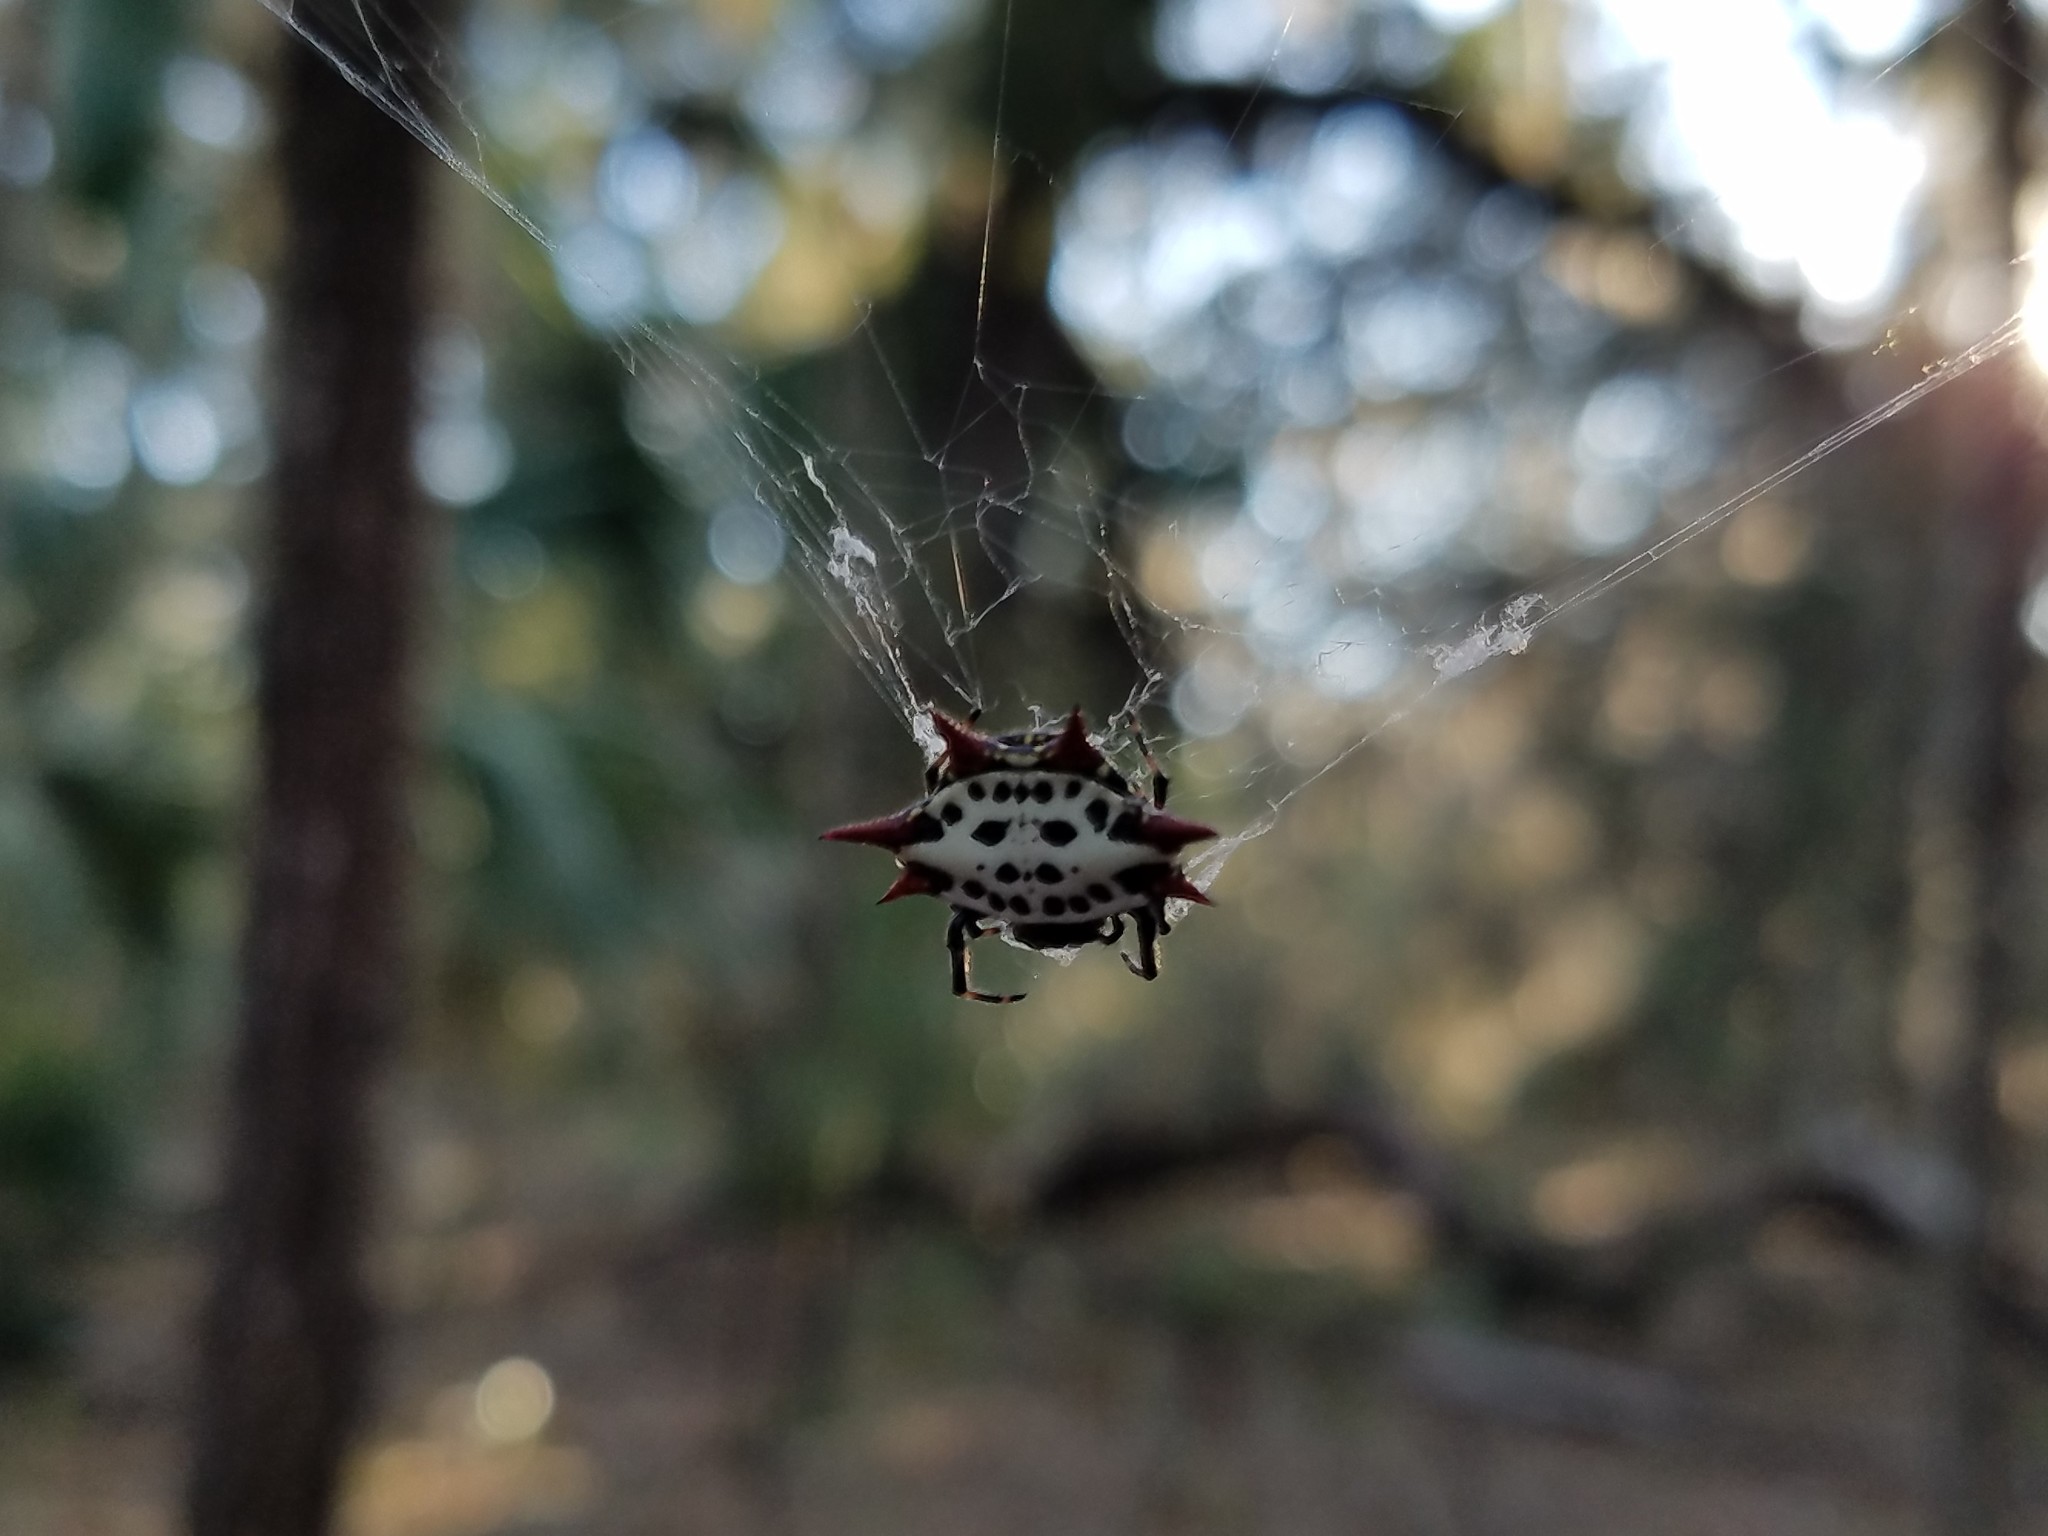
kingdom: Animalia
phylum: Arthropoda
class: Arachnida
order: Araneae
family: Araneidae
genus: Gasteracantha
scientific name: Gasteracantha cancriformis
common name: Orb weavers
